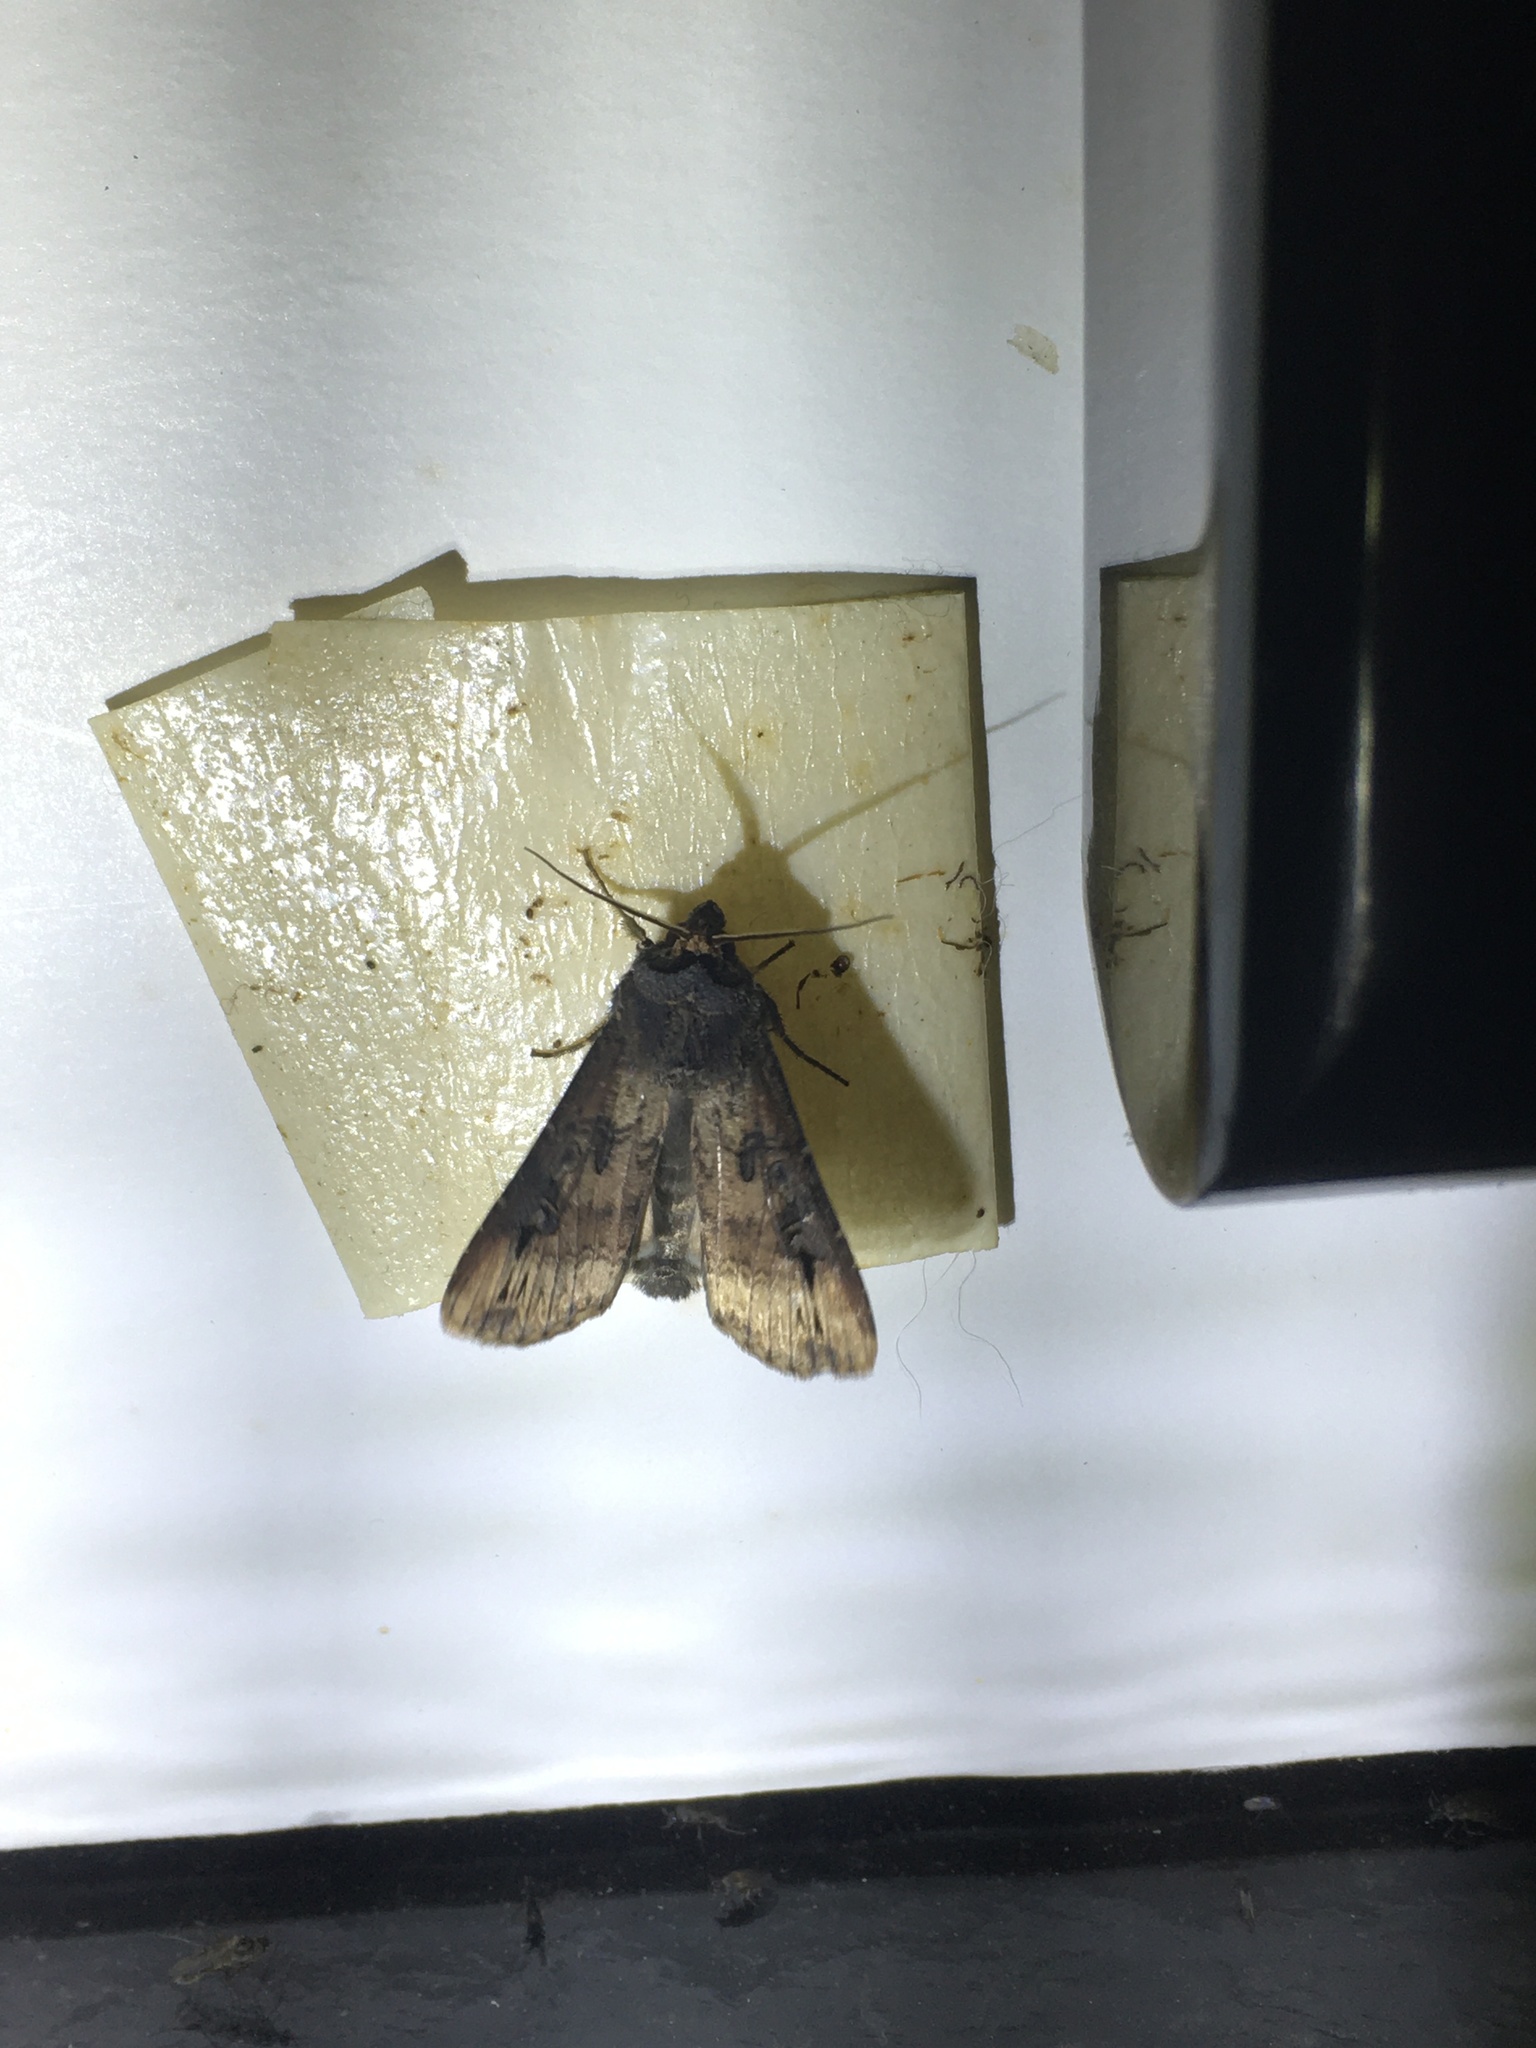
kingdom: Animalia
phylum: Arthropoda
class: Insecta
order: Lepidoptera
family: Noctuidae
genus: Agrotis
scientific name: Agrotis ipsilon
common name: Dark sword-grass
